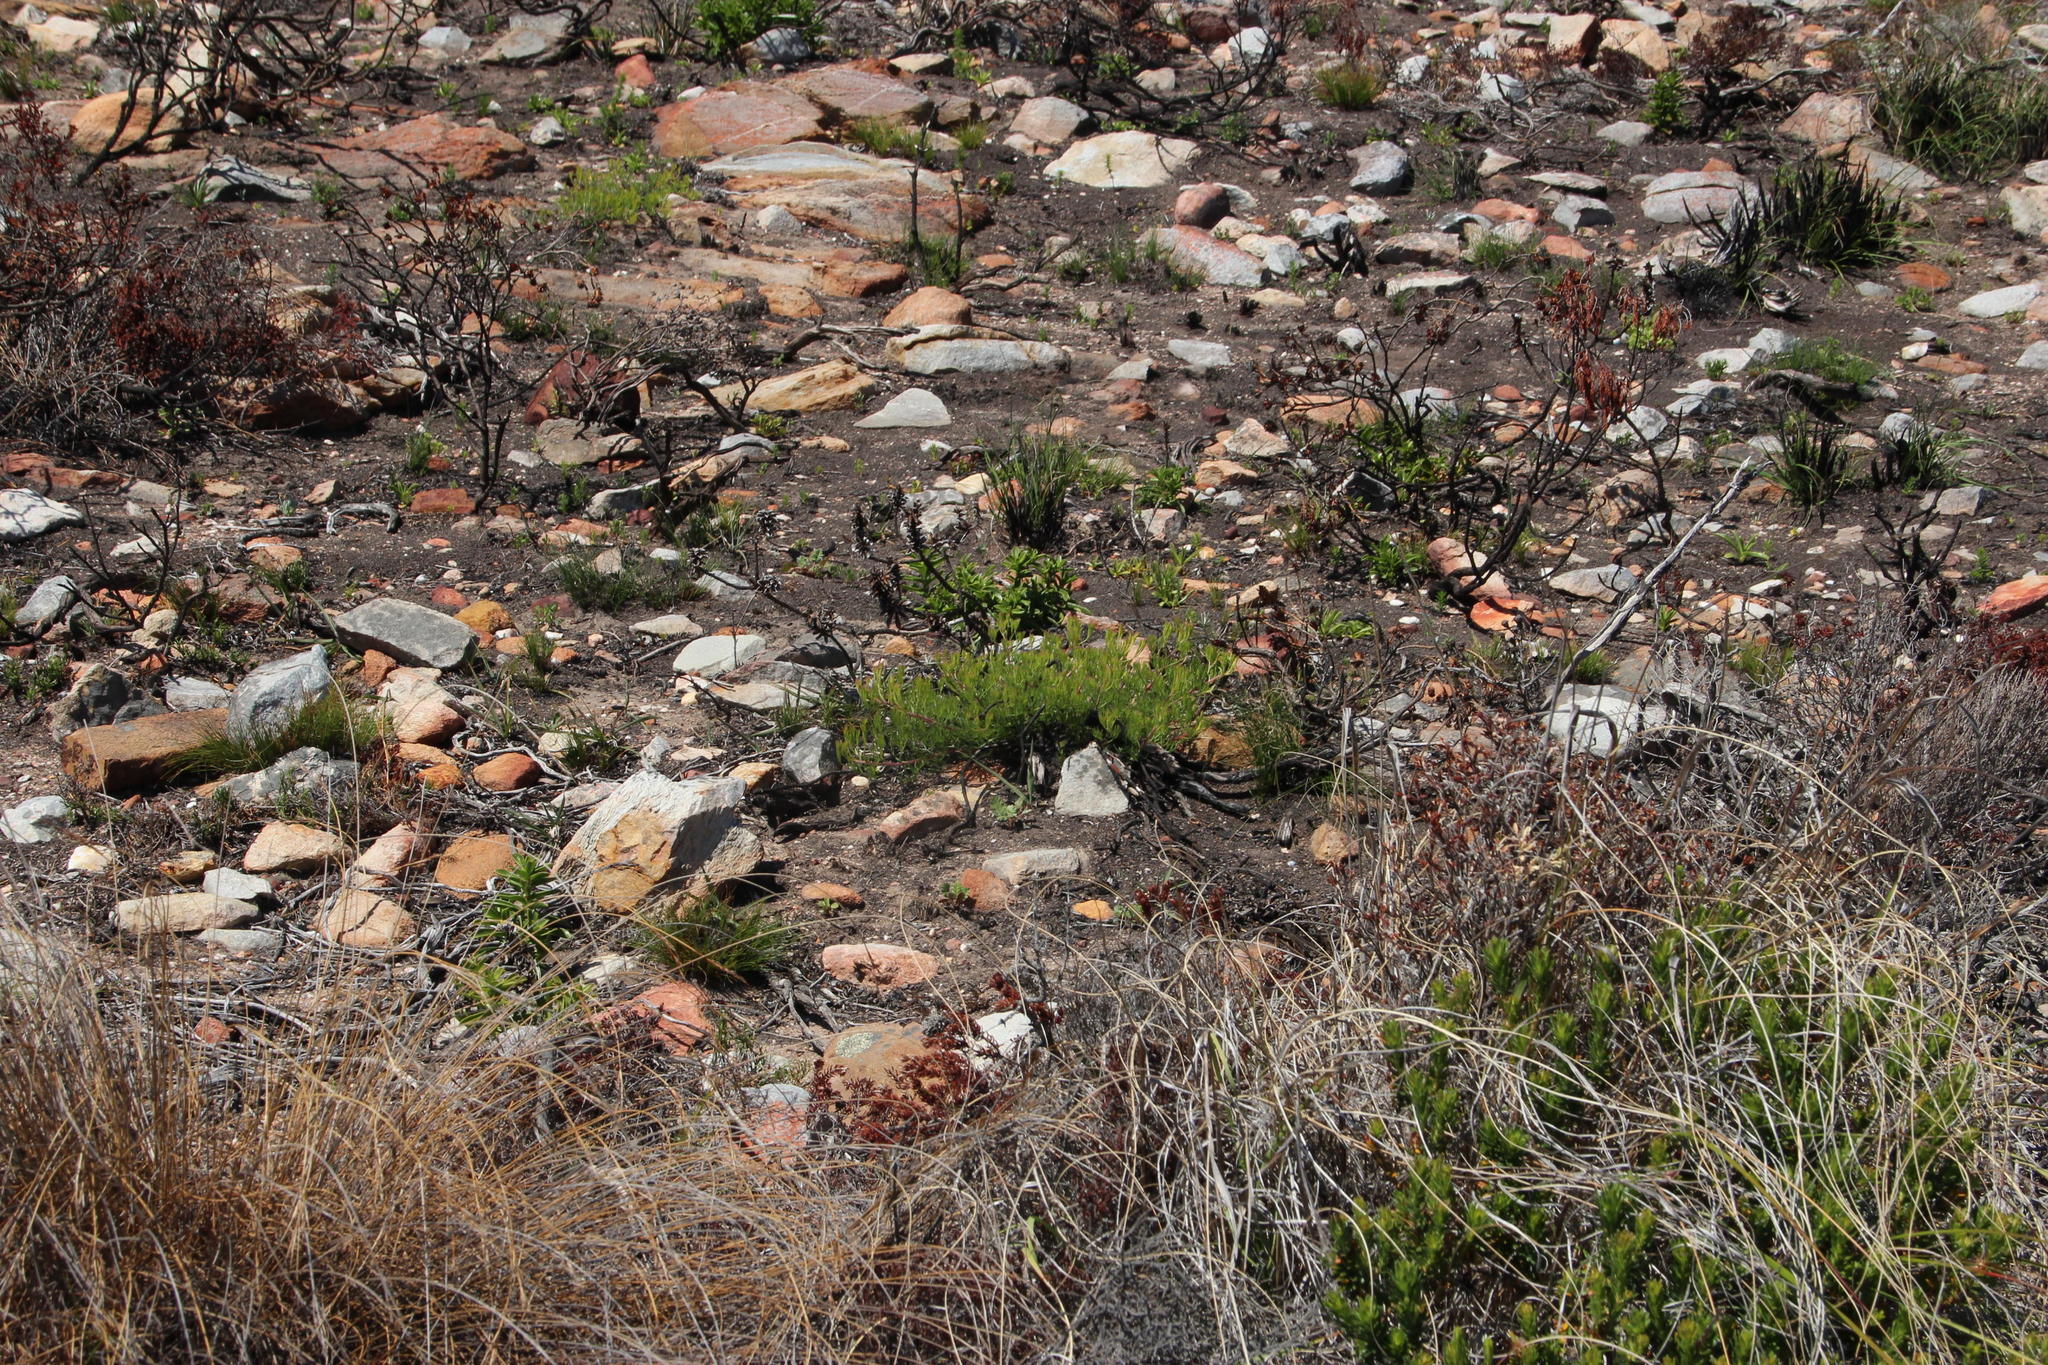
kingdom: Plantae
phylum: Tracheophyta
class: Magnoliopsida
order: Proteales
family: Proteaceae
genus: Serruria
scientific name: Serruria
